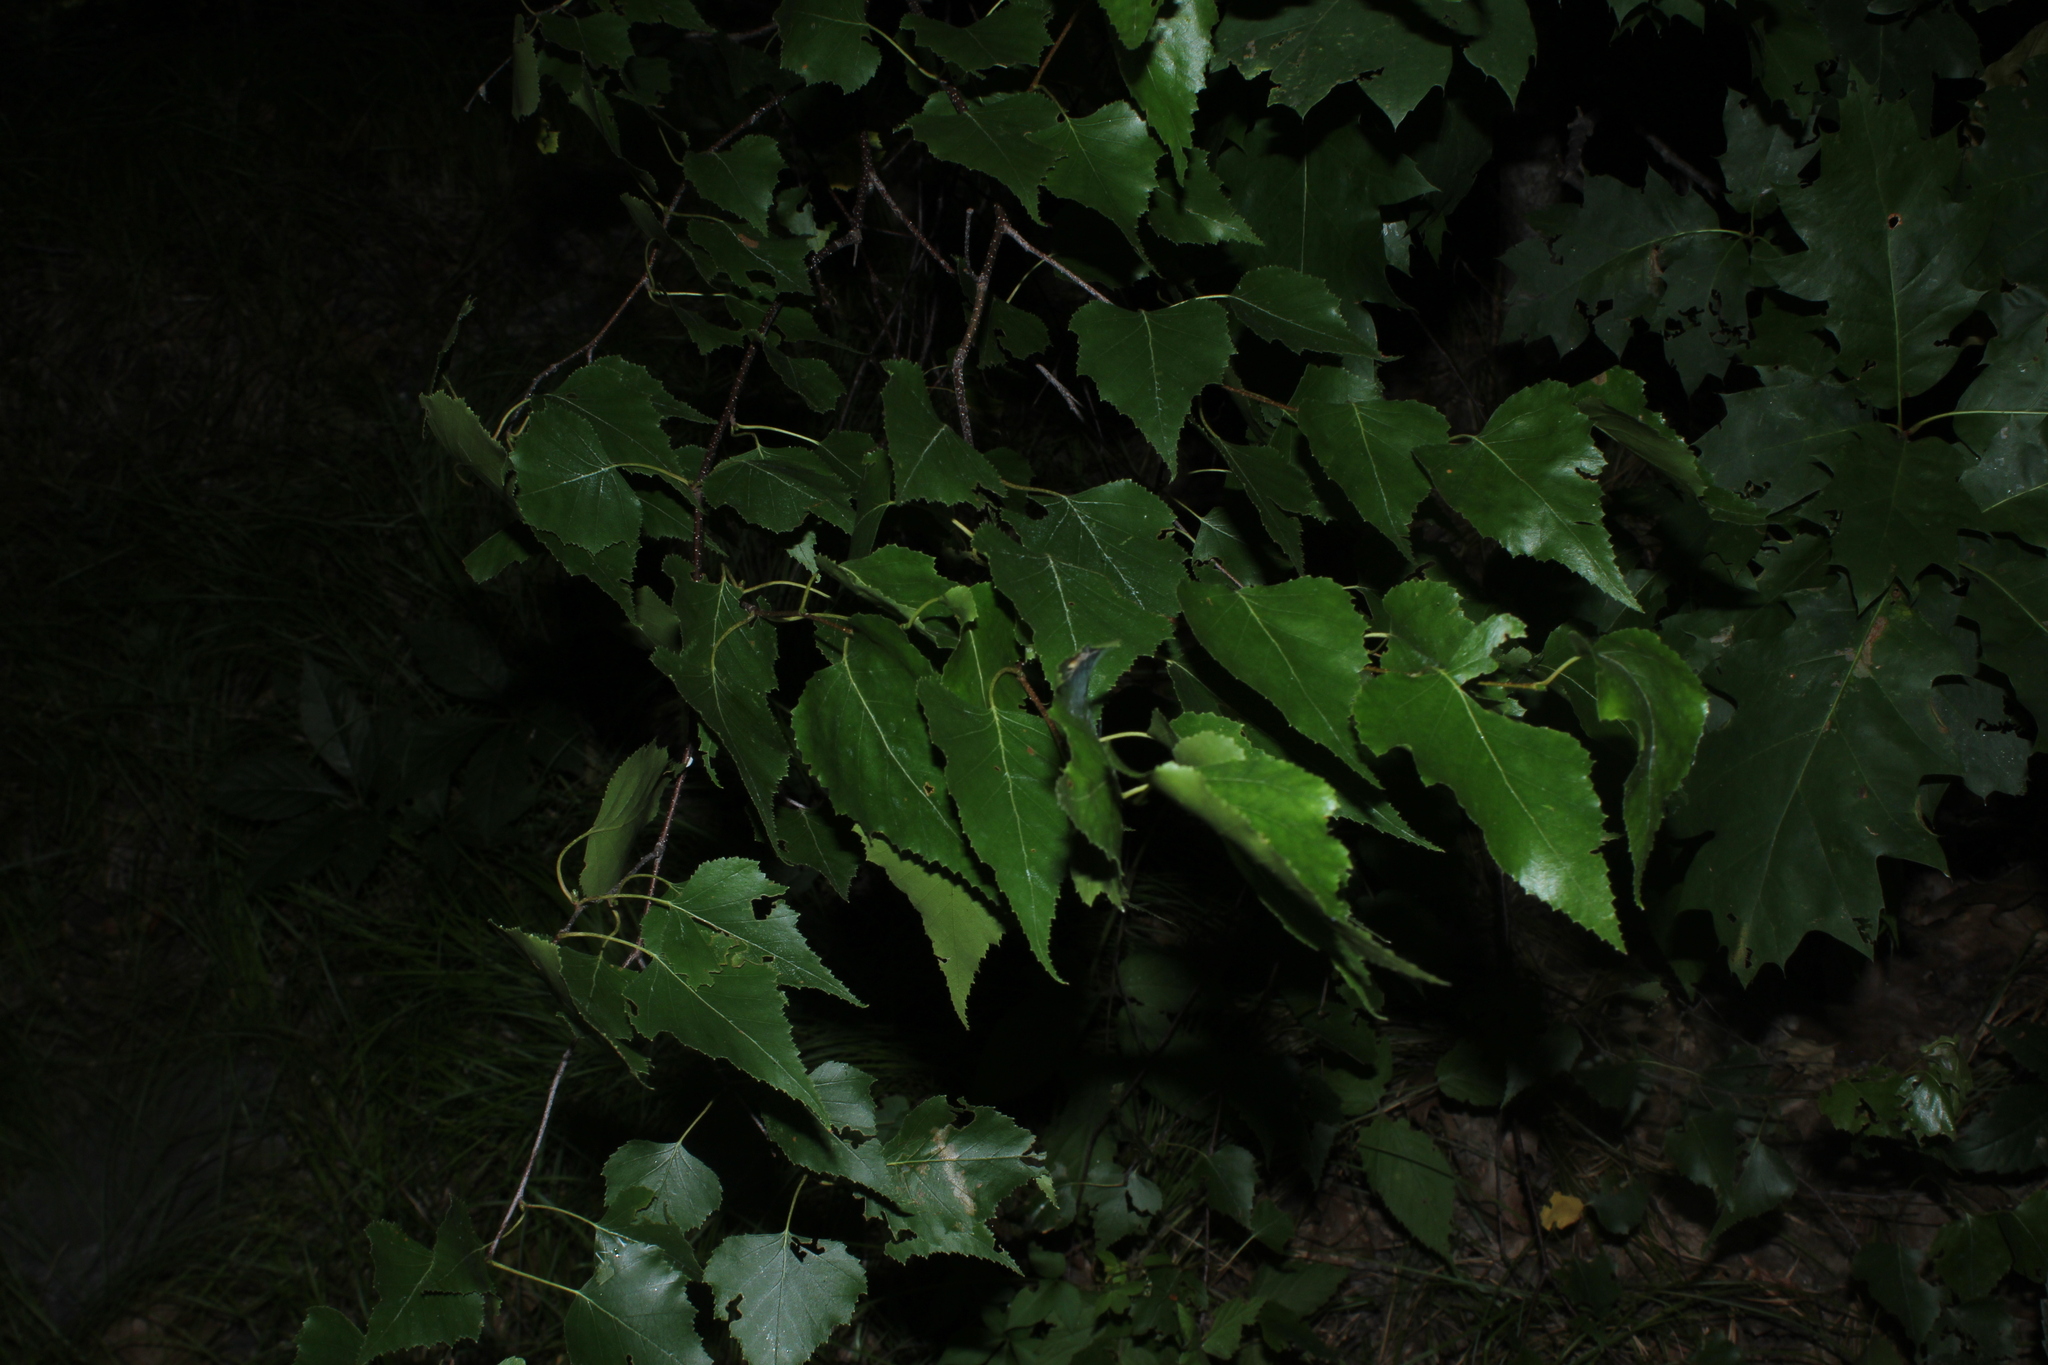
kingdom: Plantae
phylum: Tracheophyta
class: Magnoliopsida
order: Fagales
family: Betulaceae
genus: Betula
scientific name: Betula populifolia
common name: Fire birch
